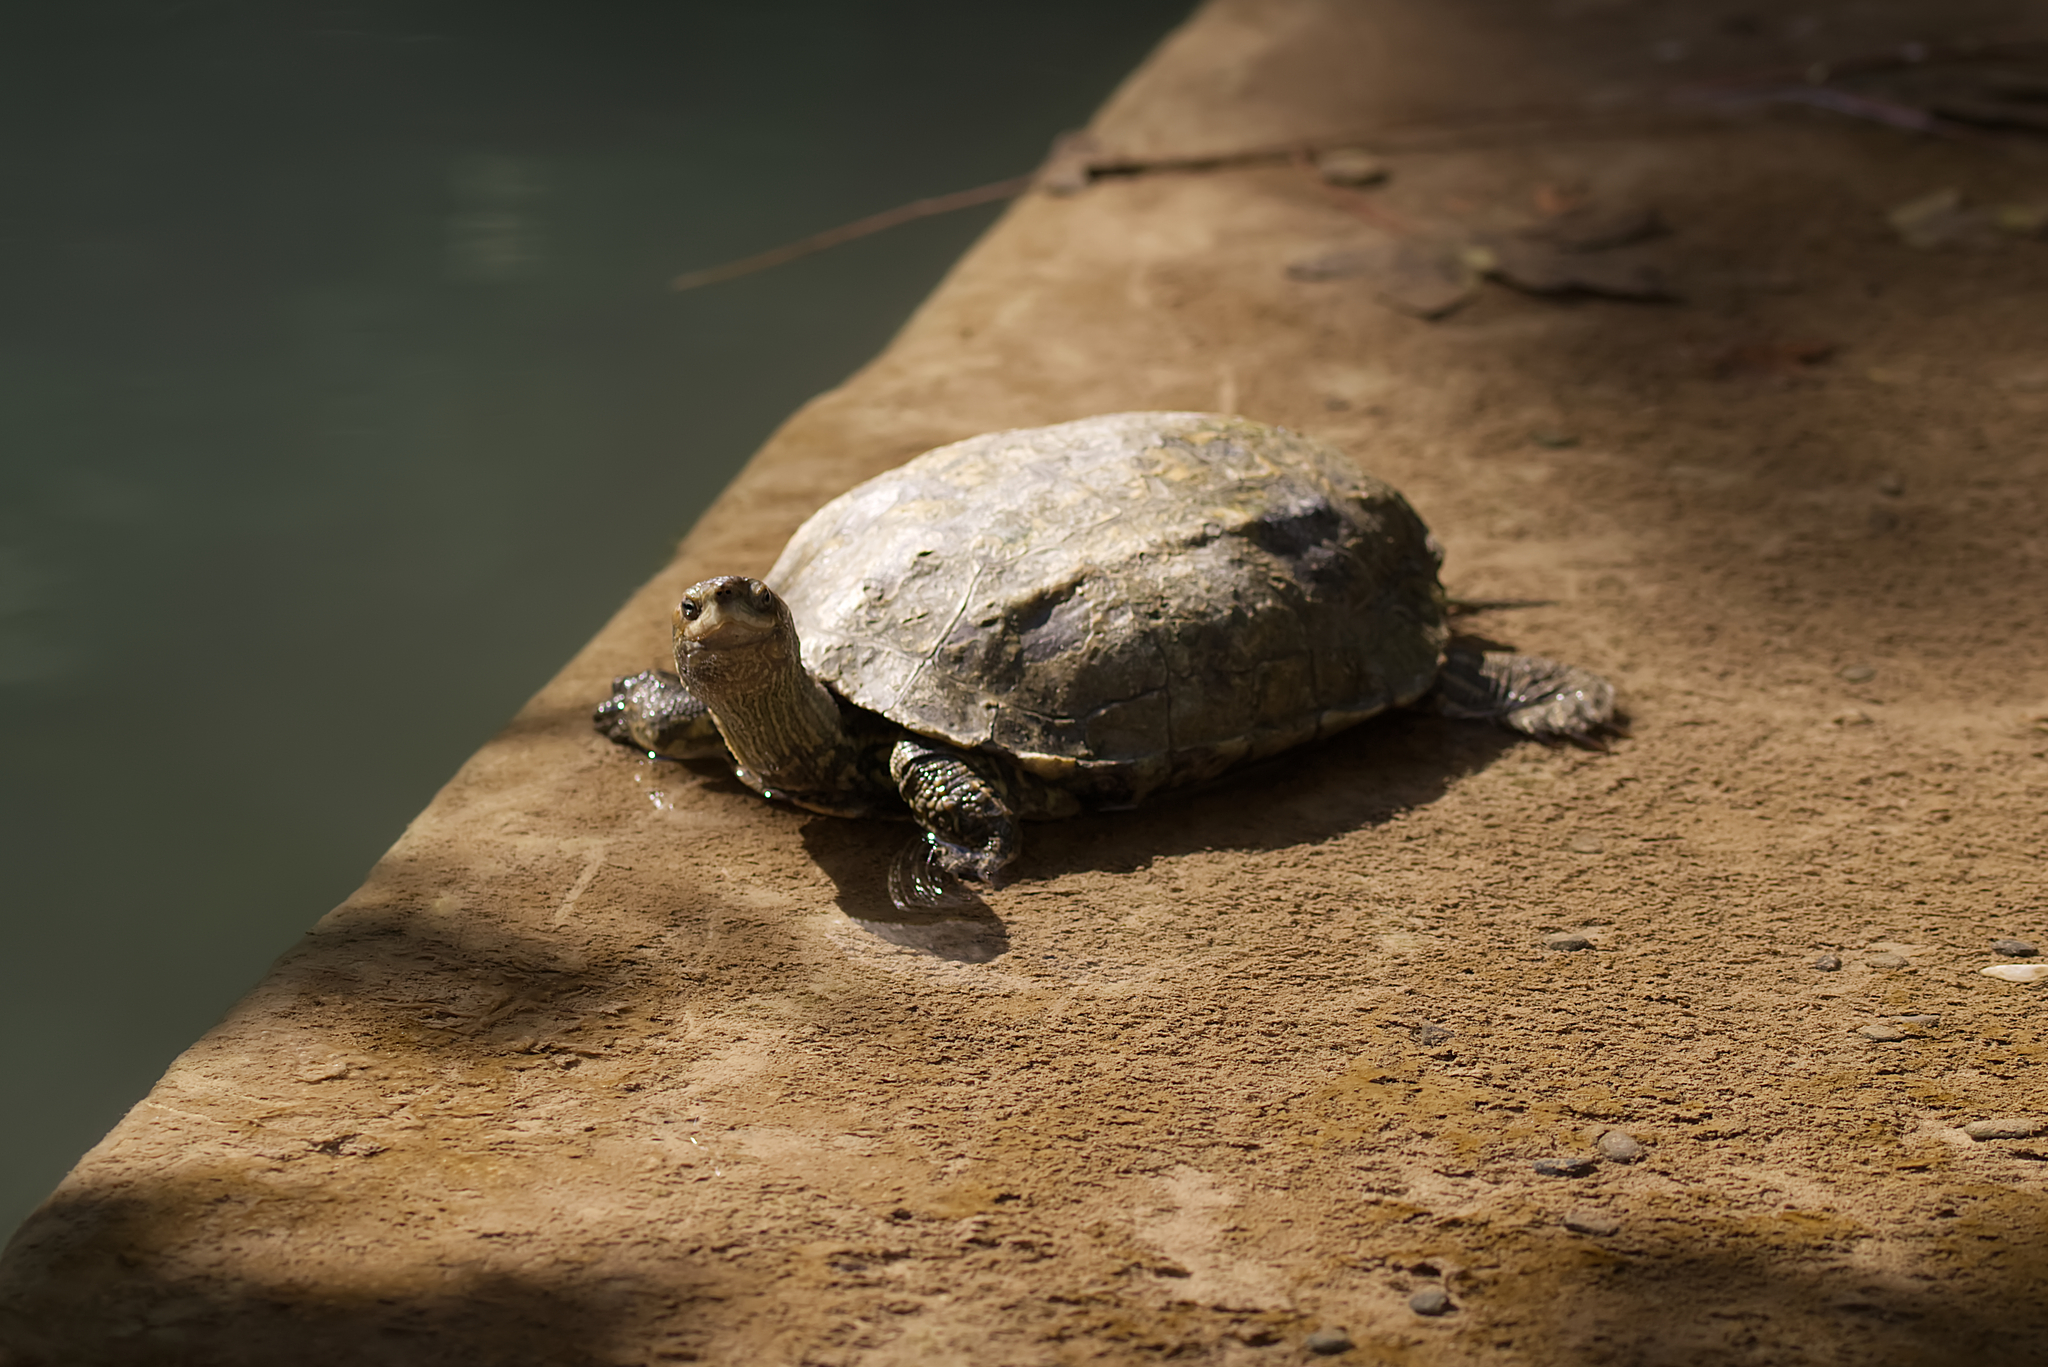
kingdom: Animalia
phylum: Chordata
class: Testudines
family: Geoemydidae
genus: Mauremys
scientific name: Mauremys rivulata
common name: Western caspian turtle
